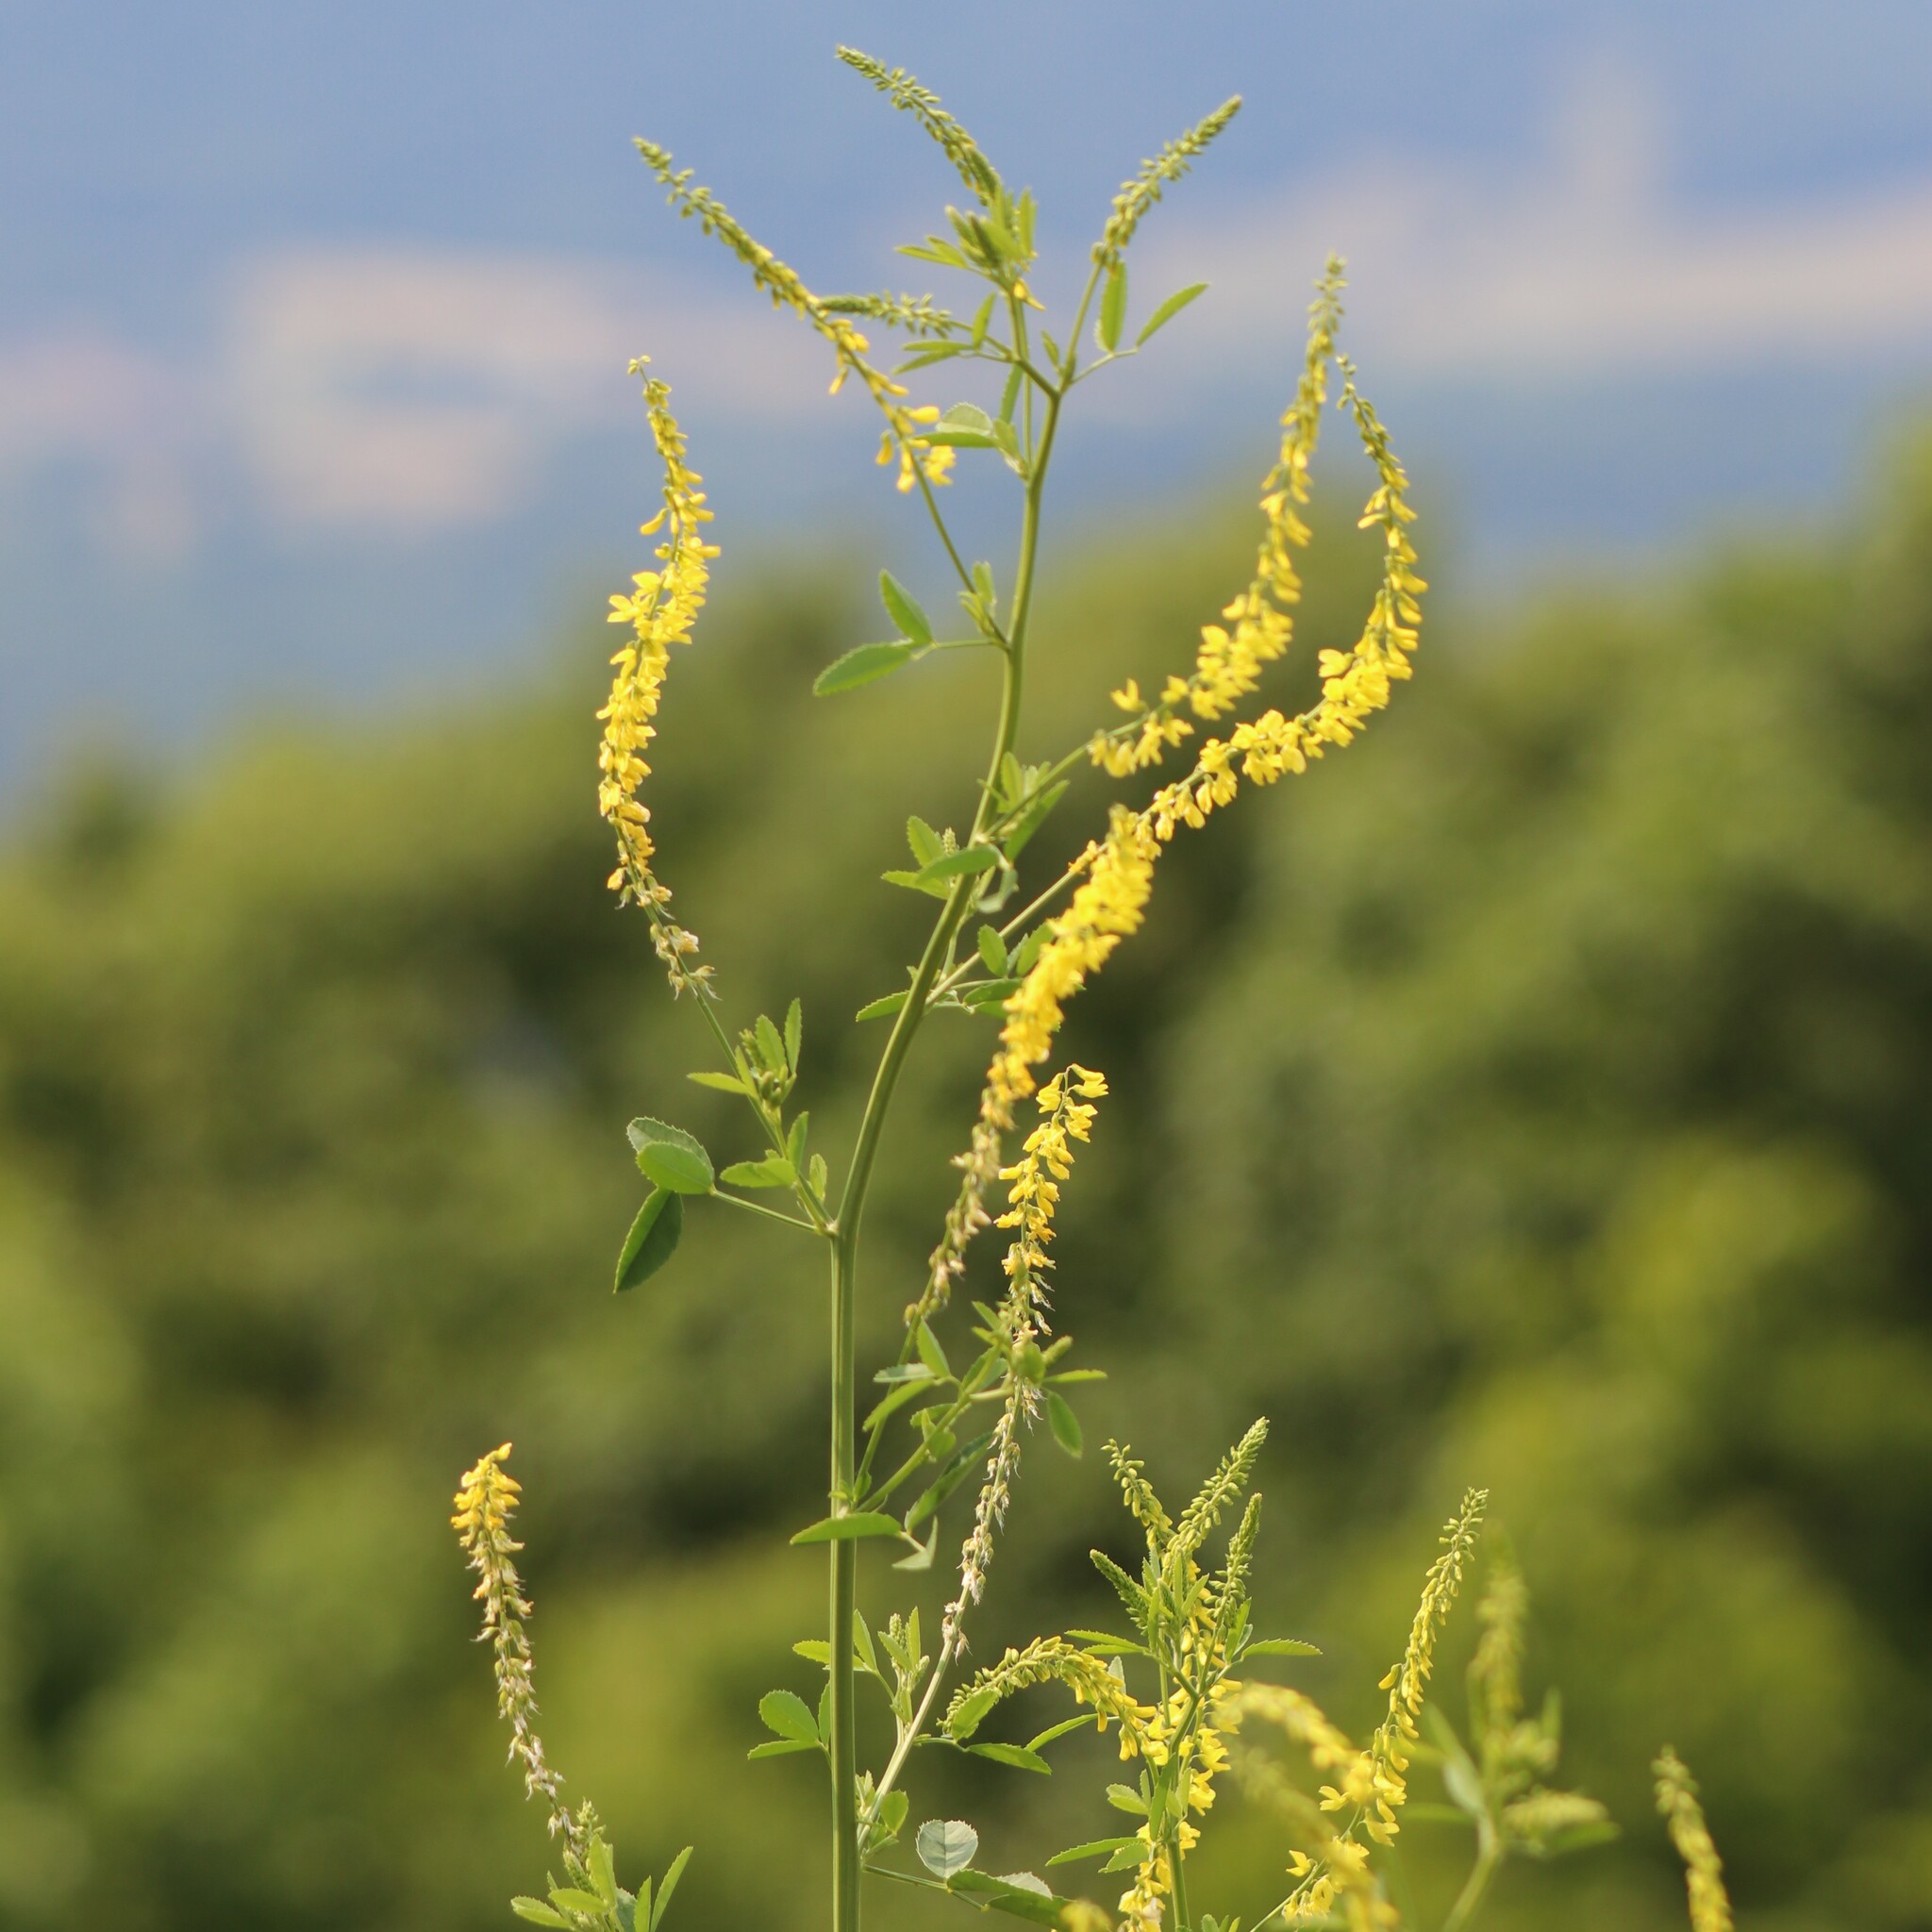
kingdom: Plantae
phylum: Tracheophyta
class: Magnoliopsida
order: Fabales
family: Fabaceae
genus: Melilotus
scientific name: Melilotus officinalis
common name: Sweetclover
